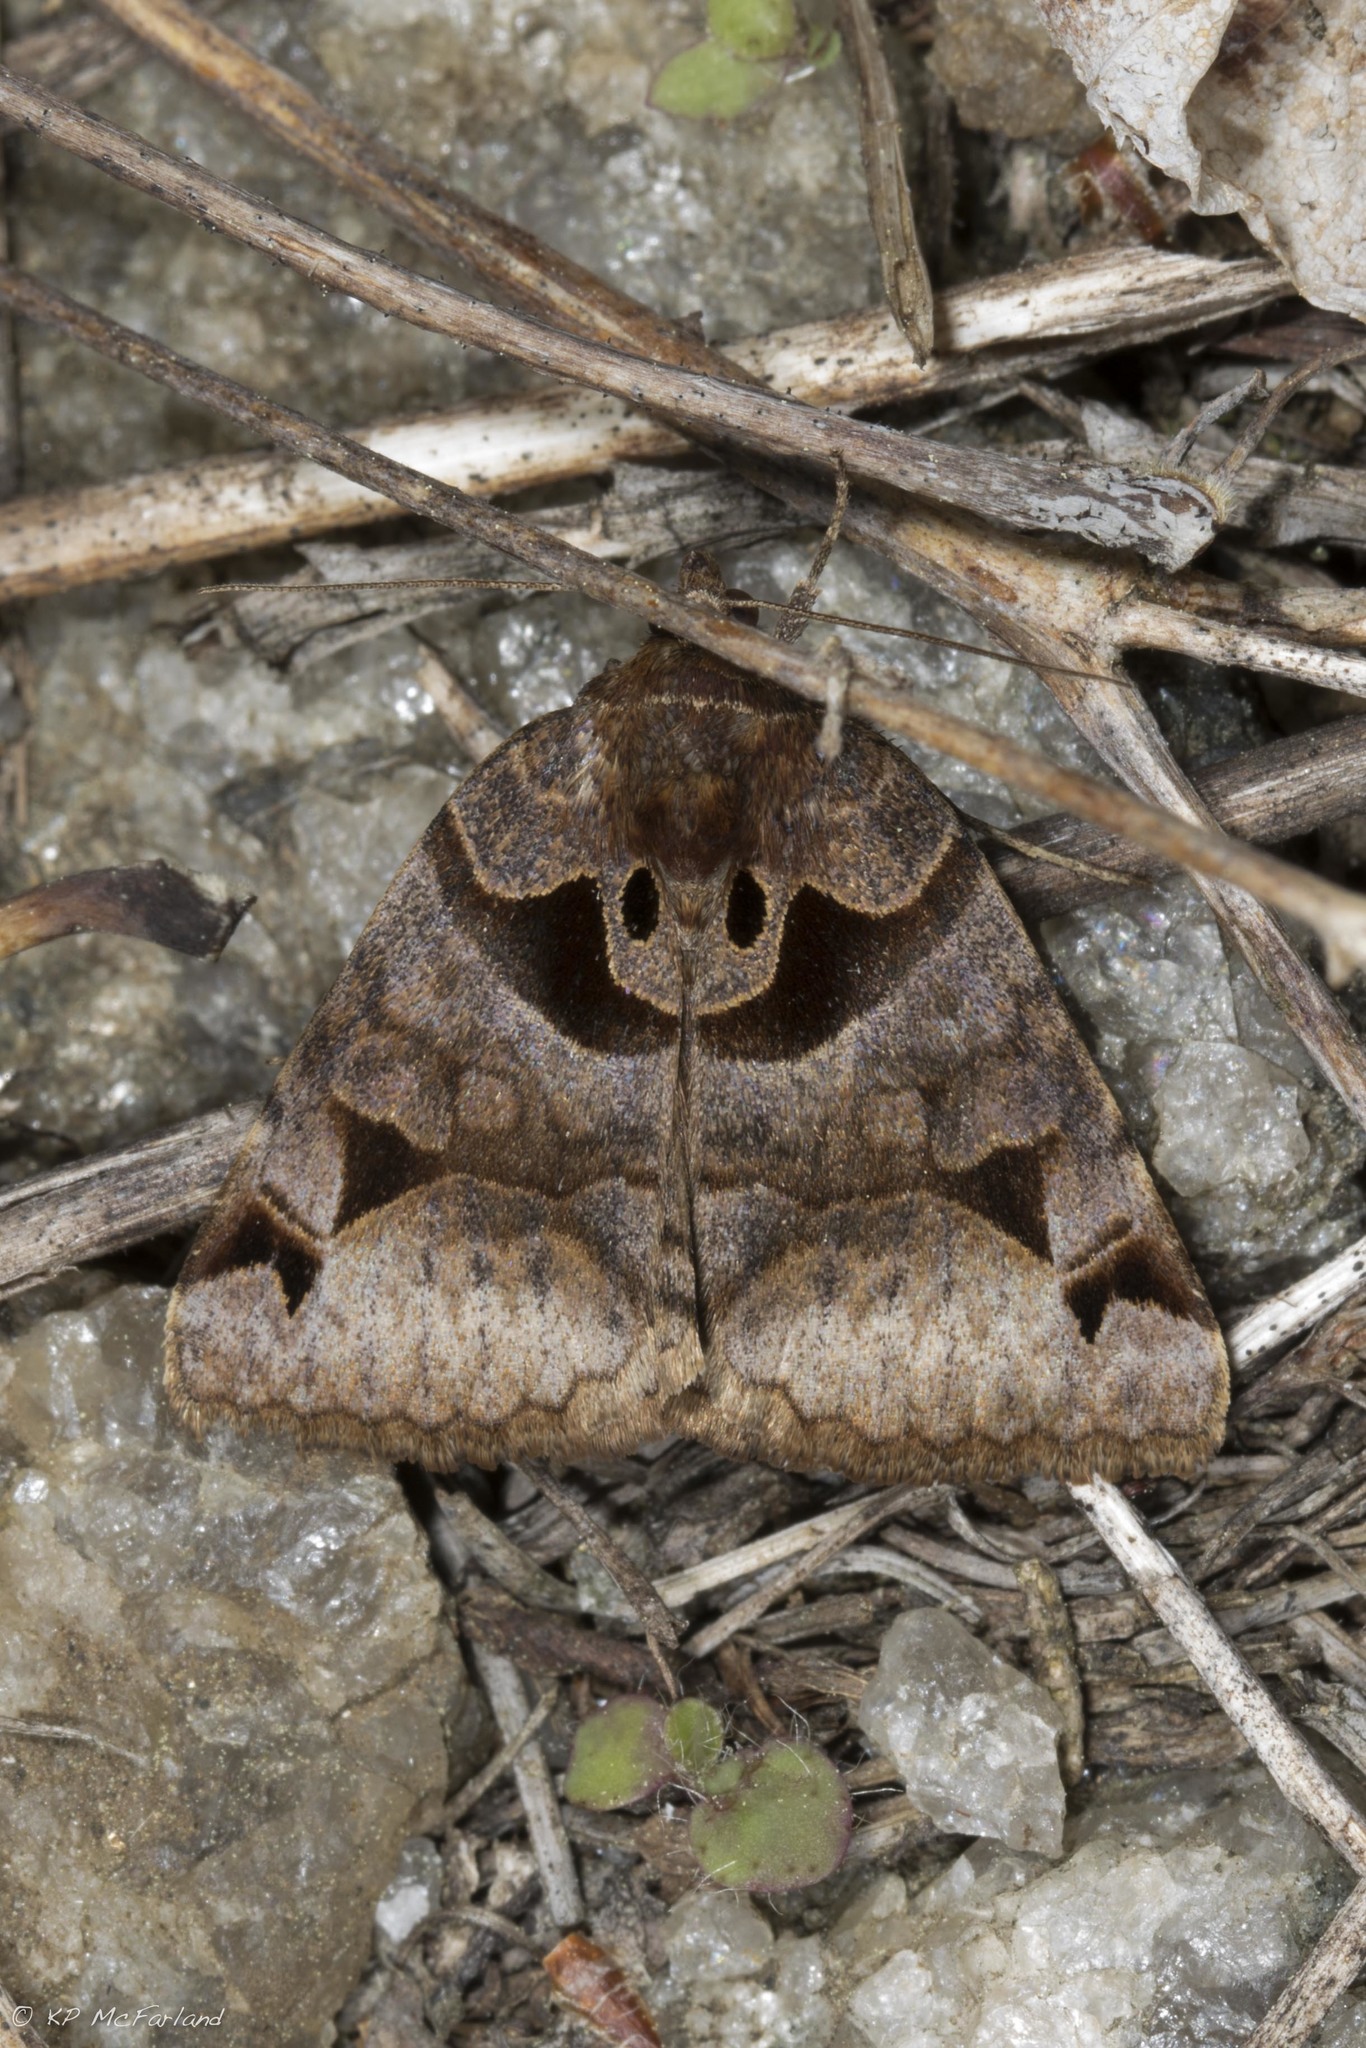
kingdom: Animalia
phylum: Arthropoda
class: Insecta
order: Lepidoptera
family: Erebidae
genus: Euclidia
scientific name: Euclidia cuspidea
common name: Toothed somberwing
